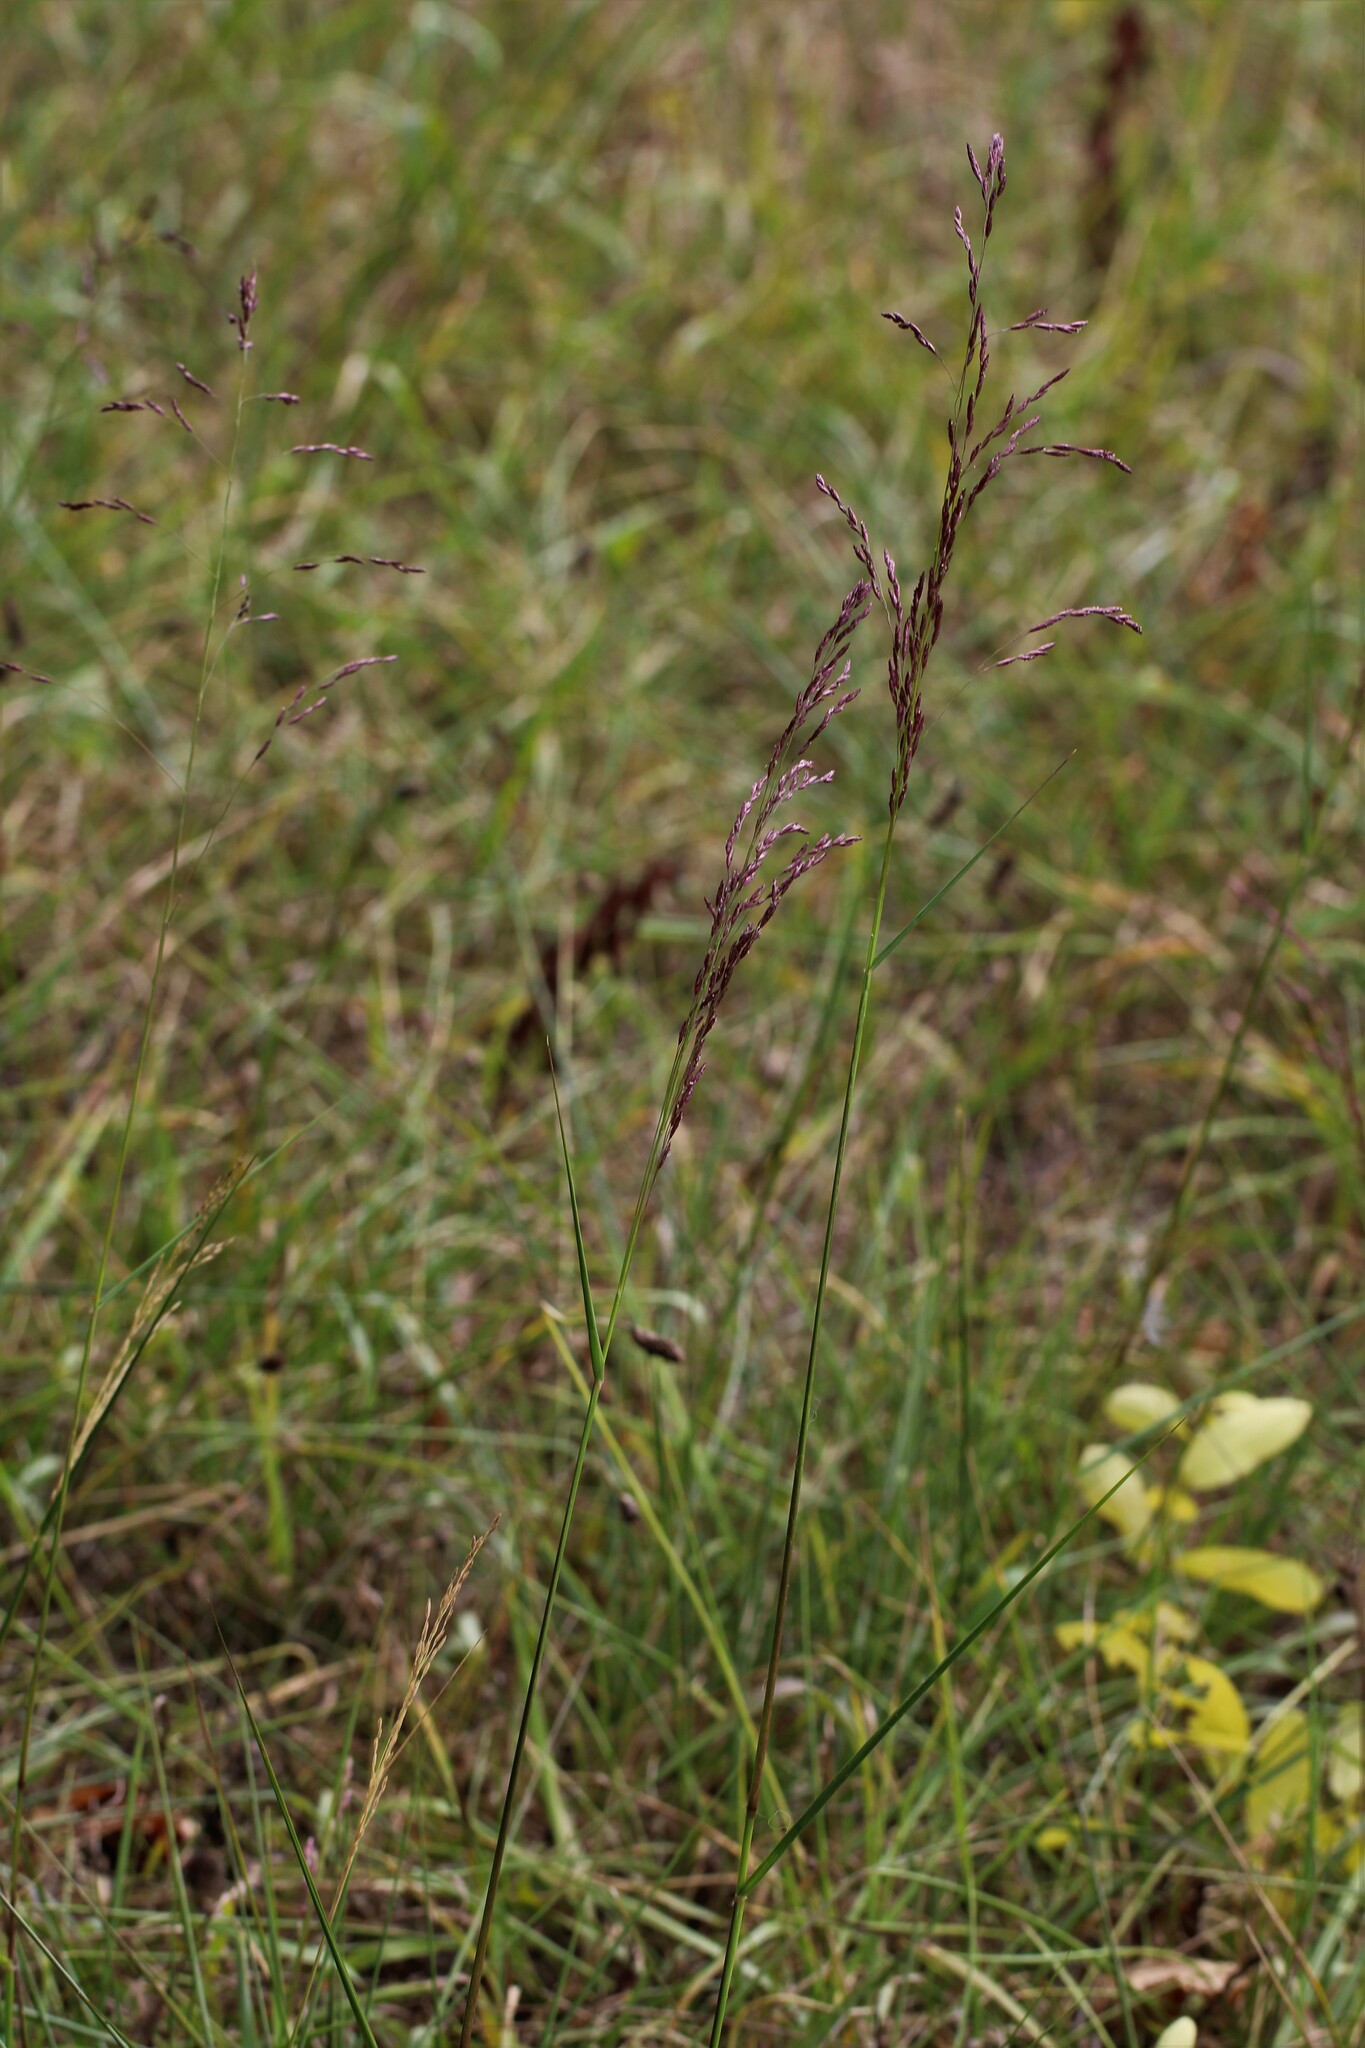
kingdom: Plantae
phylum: Tracheophyta
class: Liliopsida
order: Poales
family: Poaceae
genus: Tridens
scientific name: Tridens flavus
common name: Purpletop
